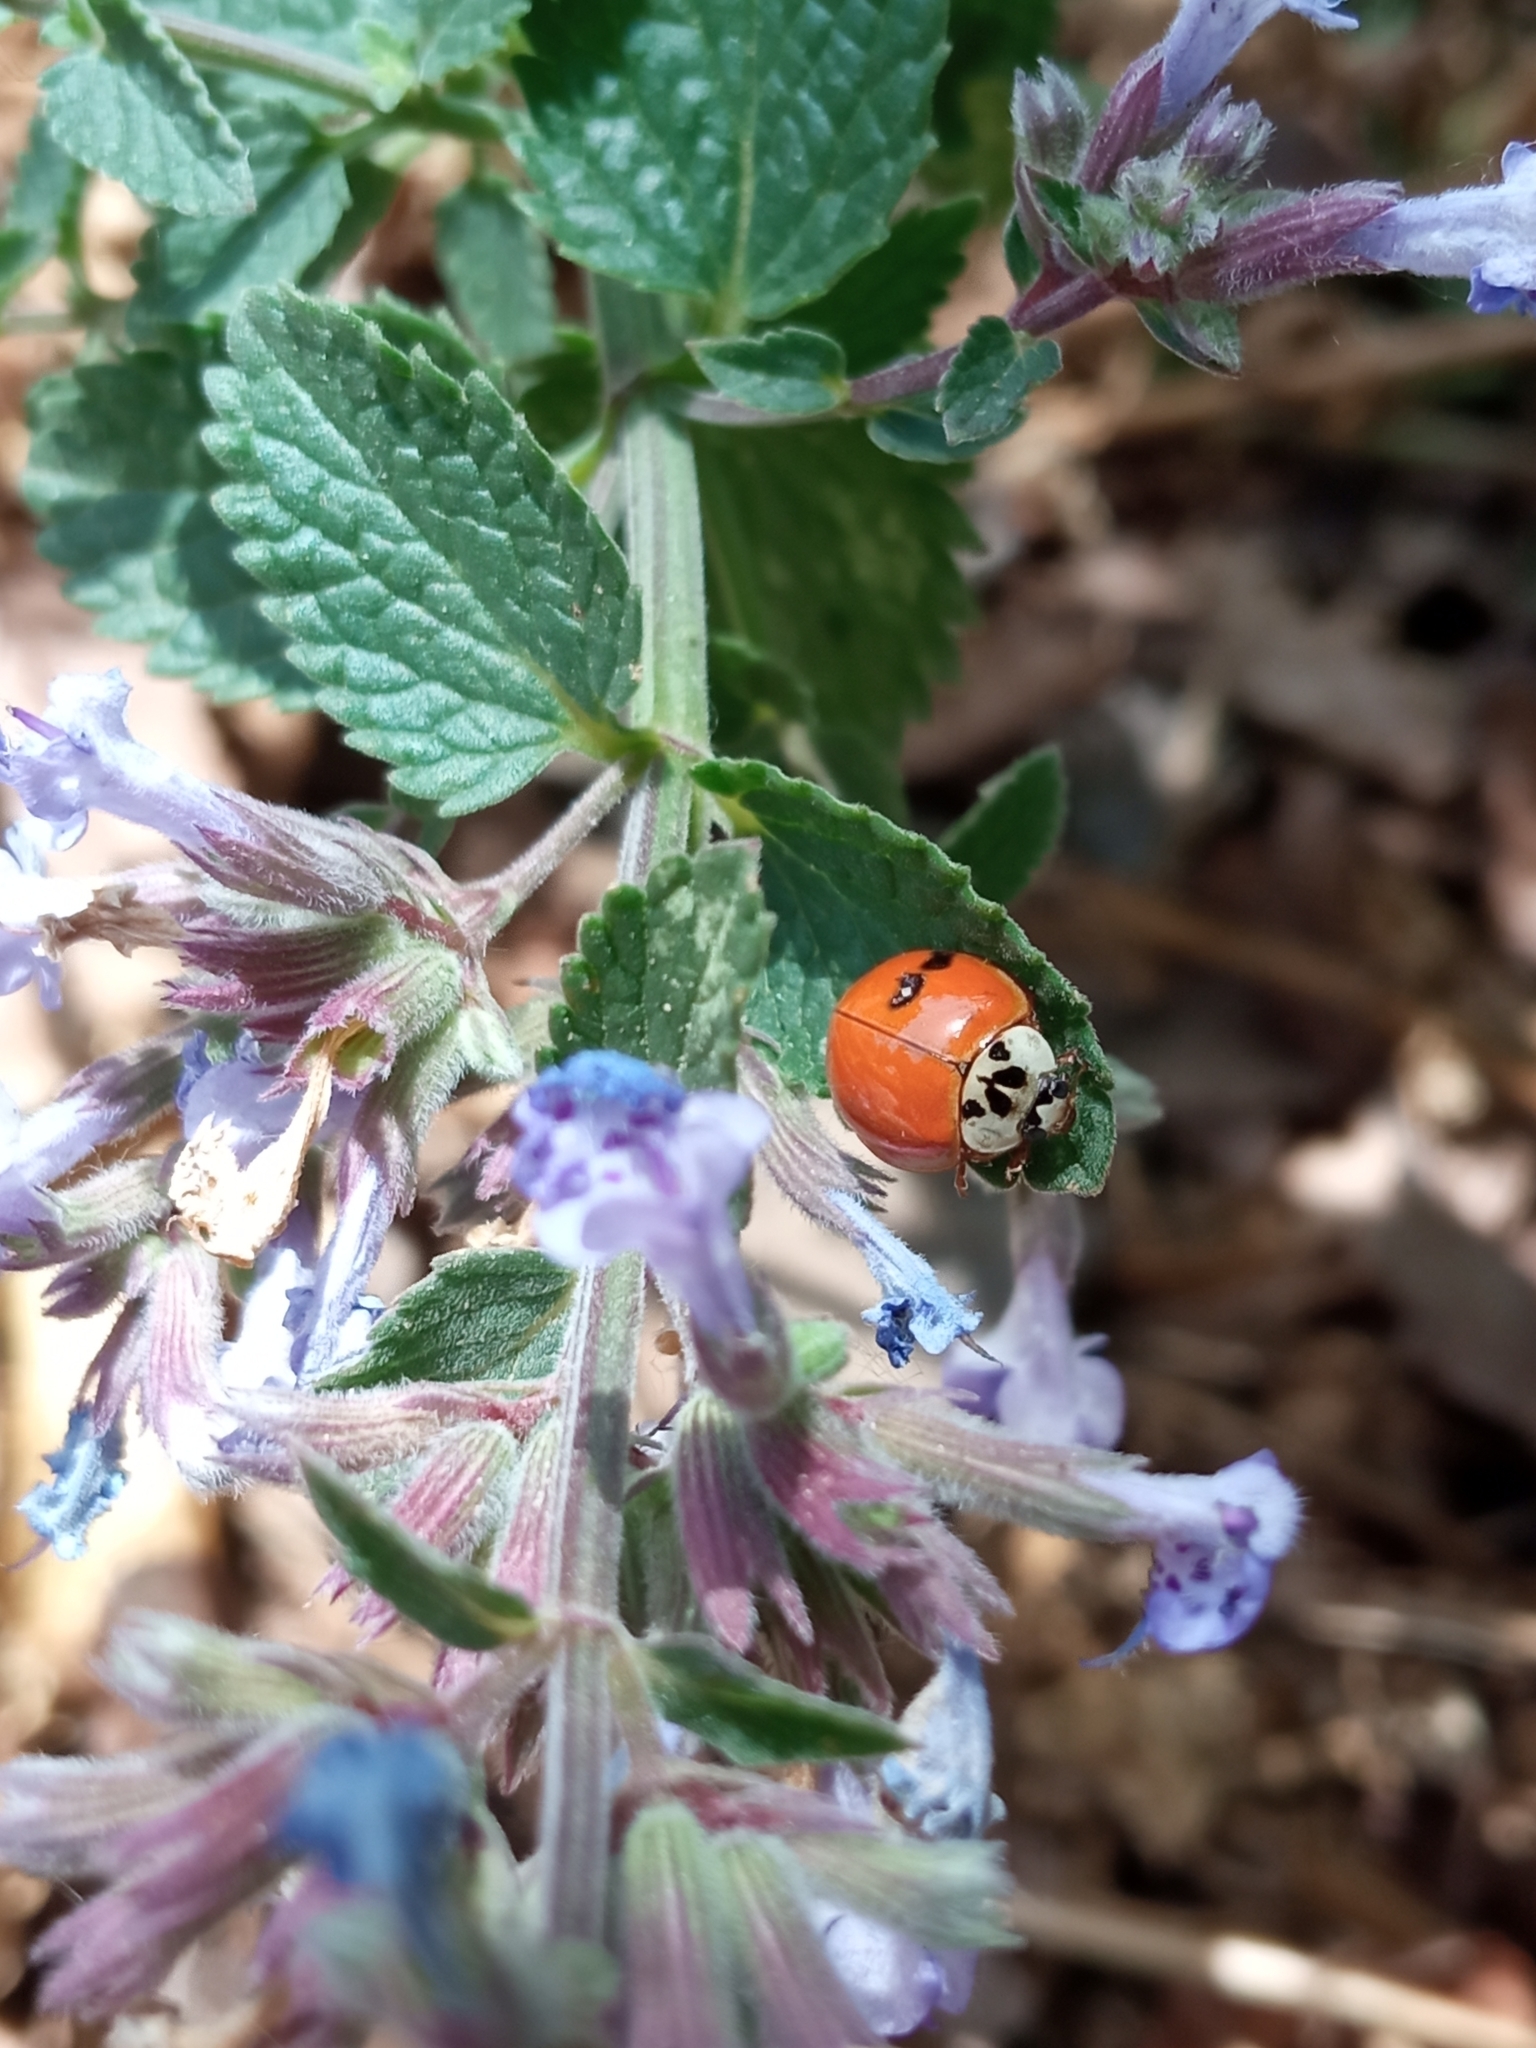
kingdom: Animalia
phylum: Arthropoda
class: Insecta
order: Coleoptera
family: Coccinellidae
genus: Harmonia
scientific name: Harmonia axyridis
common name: Harlequin ladybird
